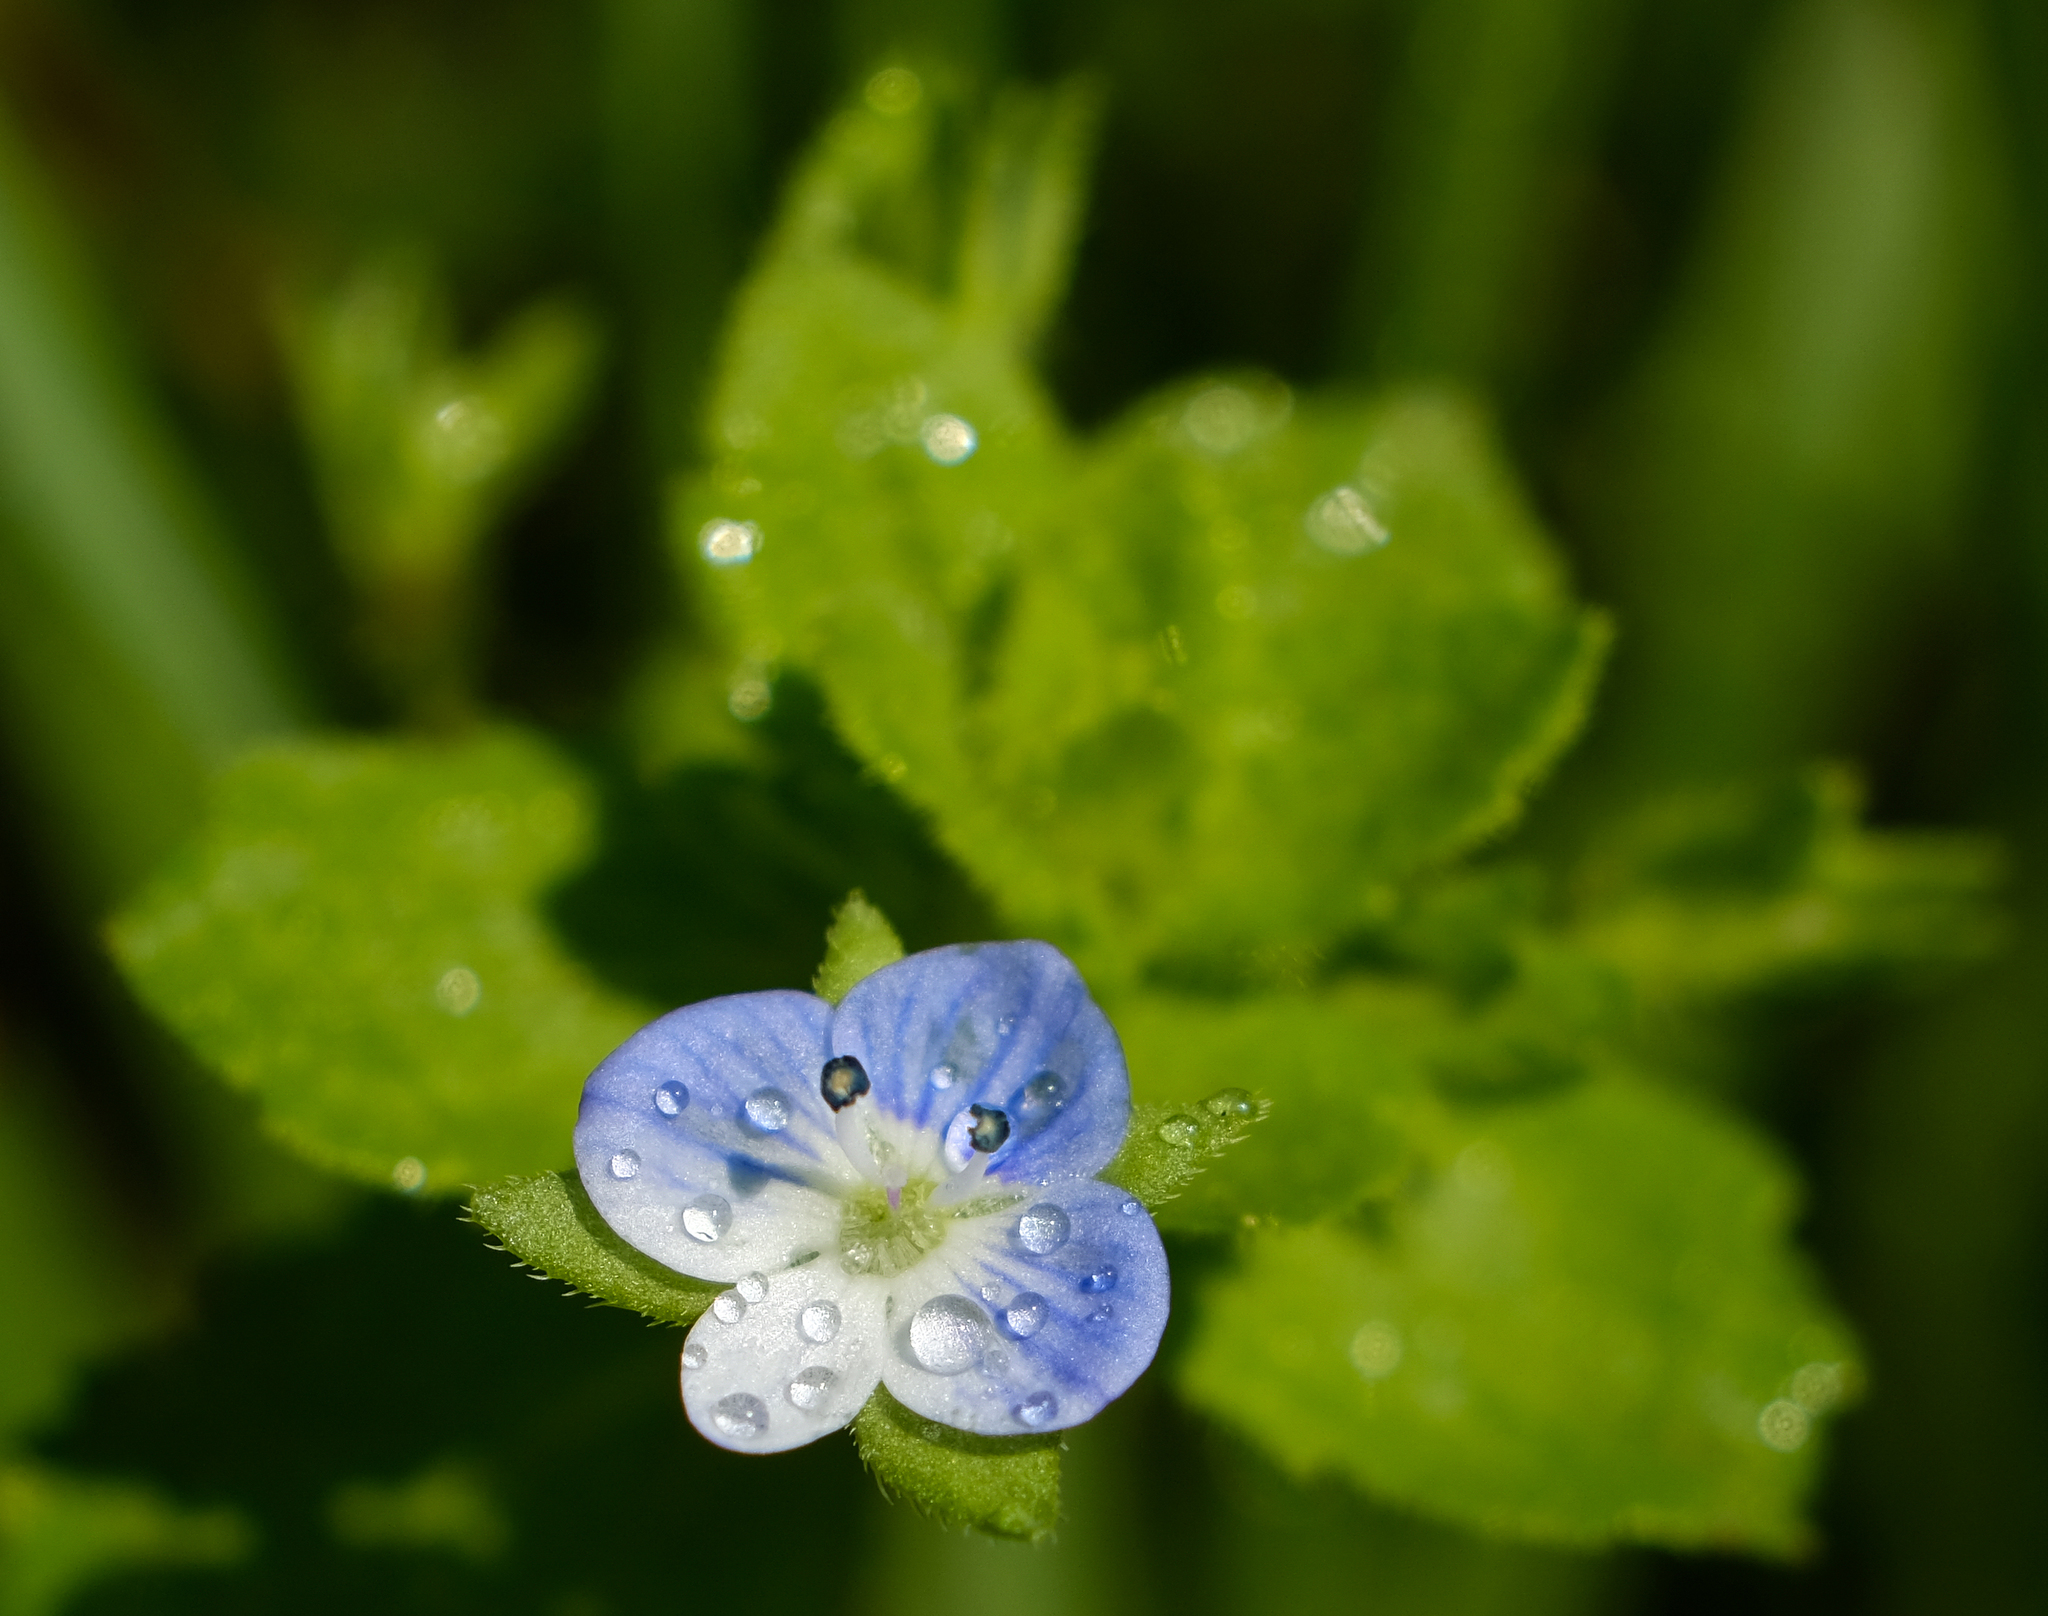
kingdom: Plantae
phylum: Tracheophyta
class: Magnoliopsida
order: Lamiales
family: Plantaginaceae
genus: Veronica
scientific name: Veronica persica
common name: Common field-speedwell
